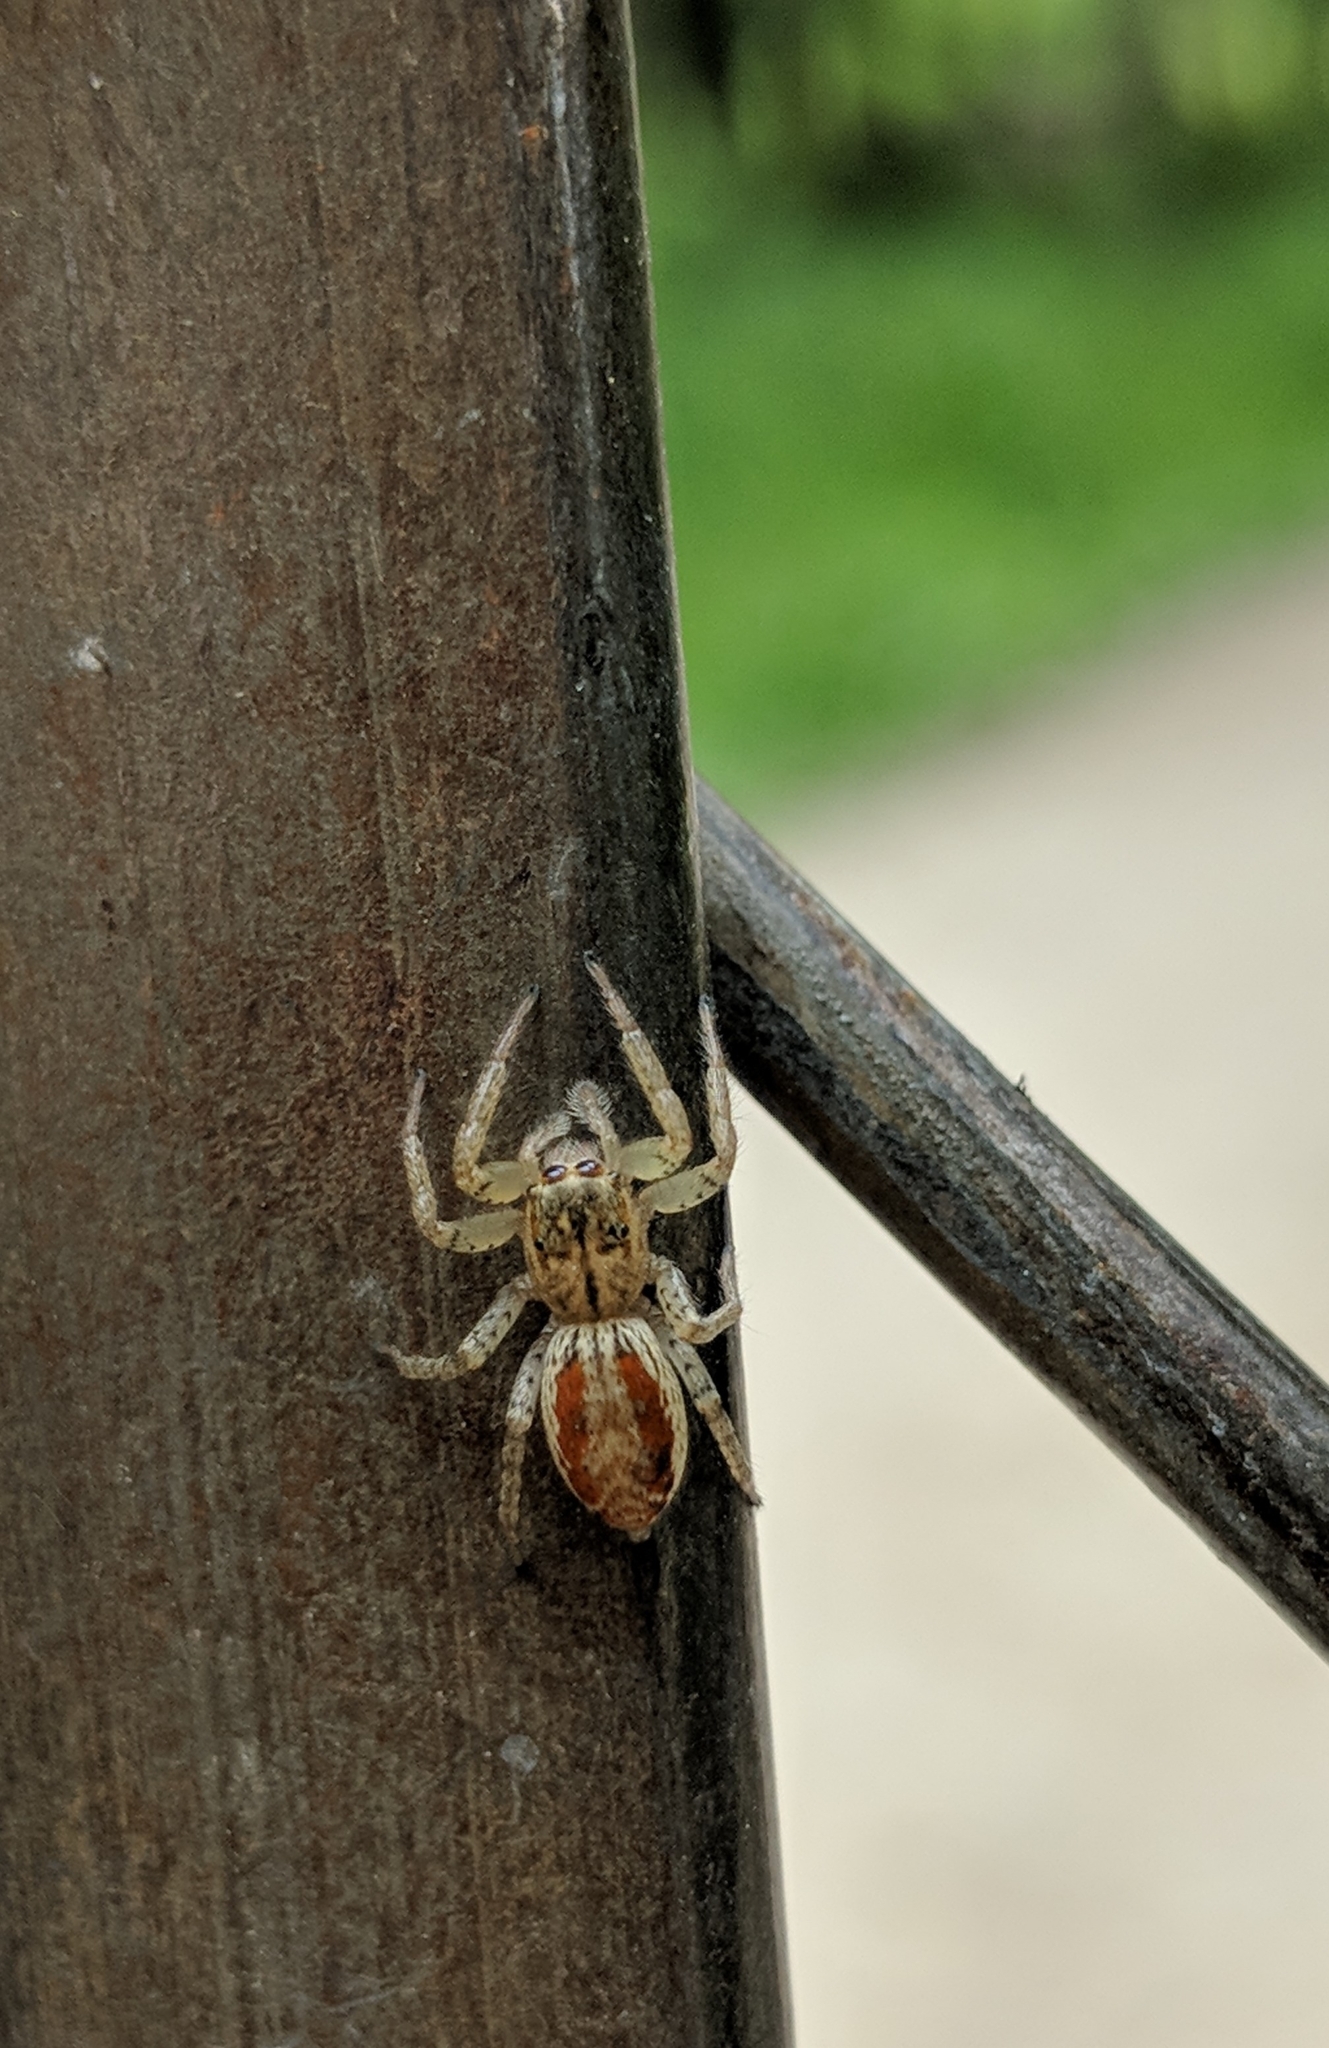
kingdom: Animalia
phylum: Arthropoda
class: Arachnida
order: Araneae
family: Salticidae
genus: Maevia
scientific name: Maevia inclemens
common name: Dimorphic jumper
